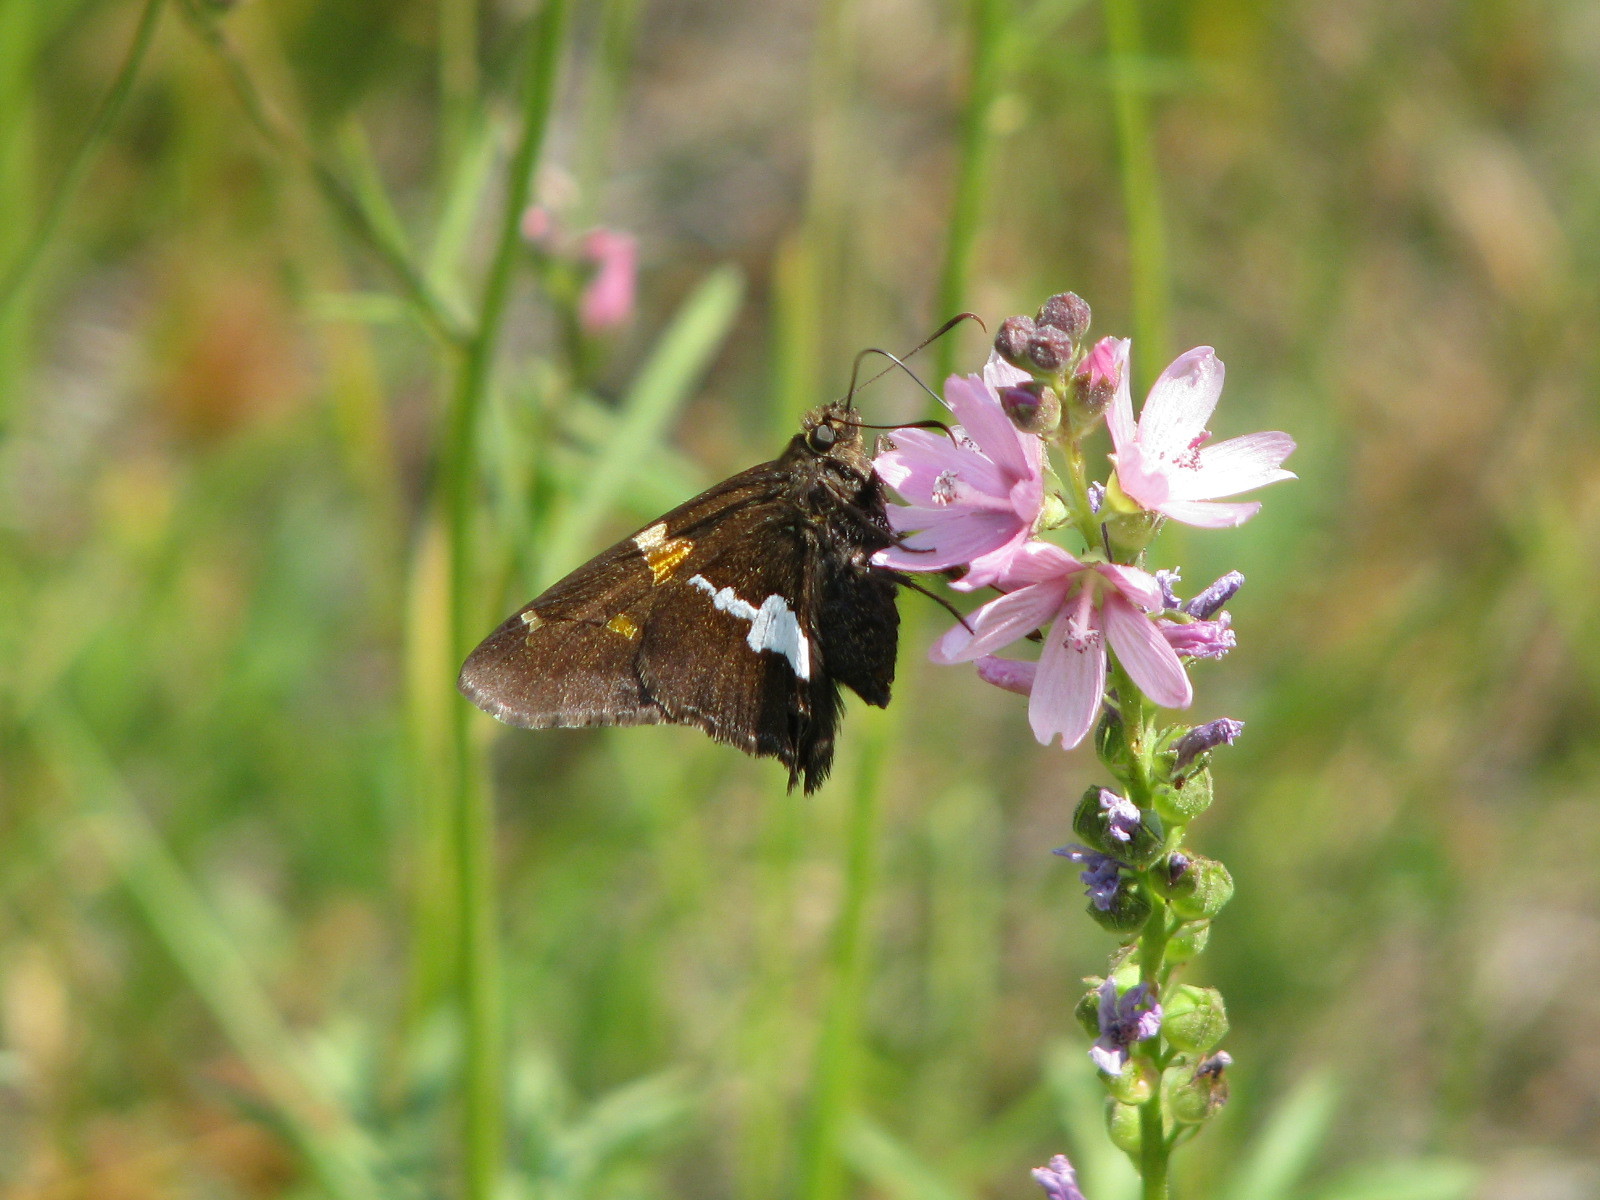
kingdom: Animalia
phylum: Arthropoda
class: Insecta
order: Lepidoptera
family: Hesperiidae
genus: Epargyreus
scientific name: Epargyreus clarus
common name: Silver-spotted skipper
